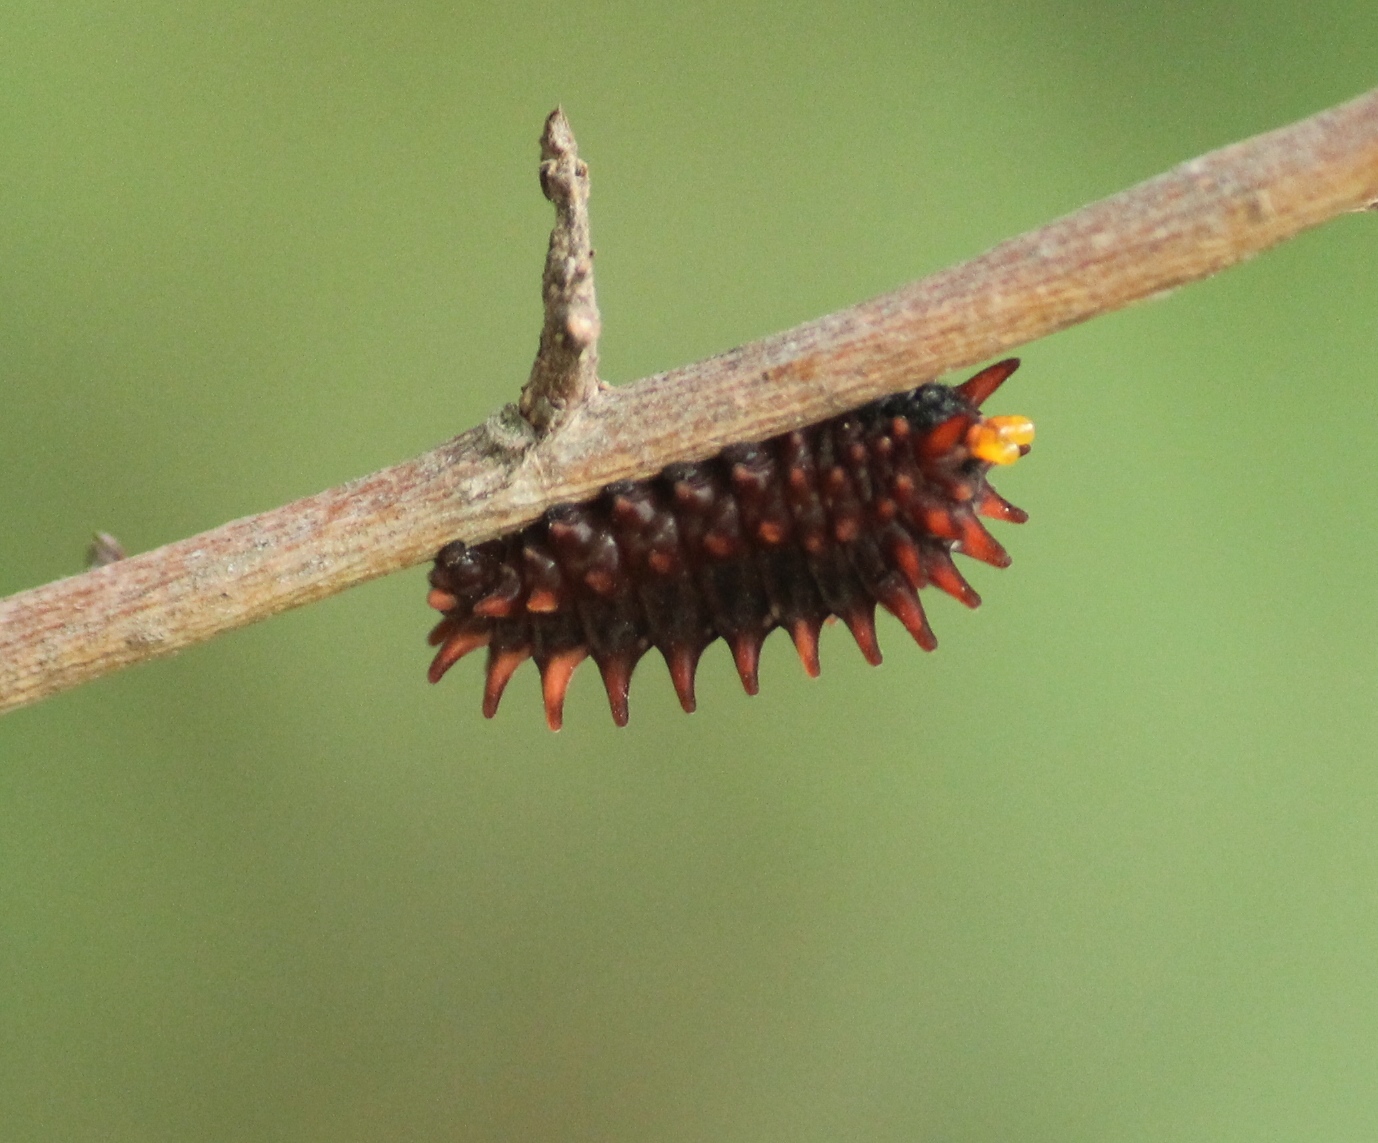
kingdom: Animalia
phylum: Arthropoda
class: Insecta
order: Lepidoptera
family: Papilionidae
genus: Pachliopta
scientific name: Pachliopta hector
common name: Crimson rose
